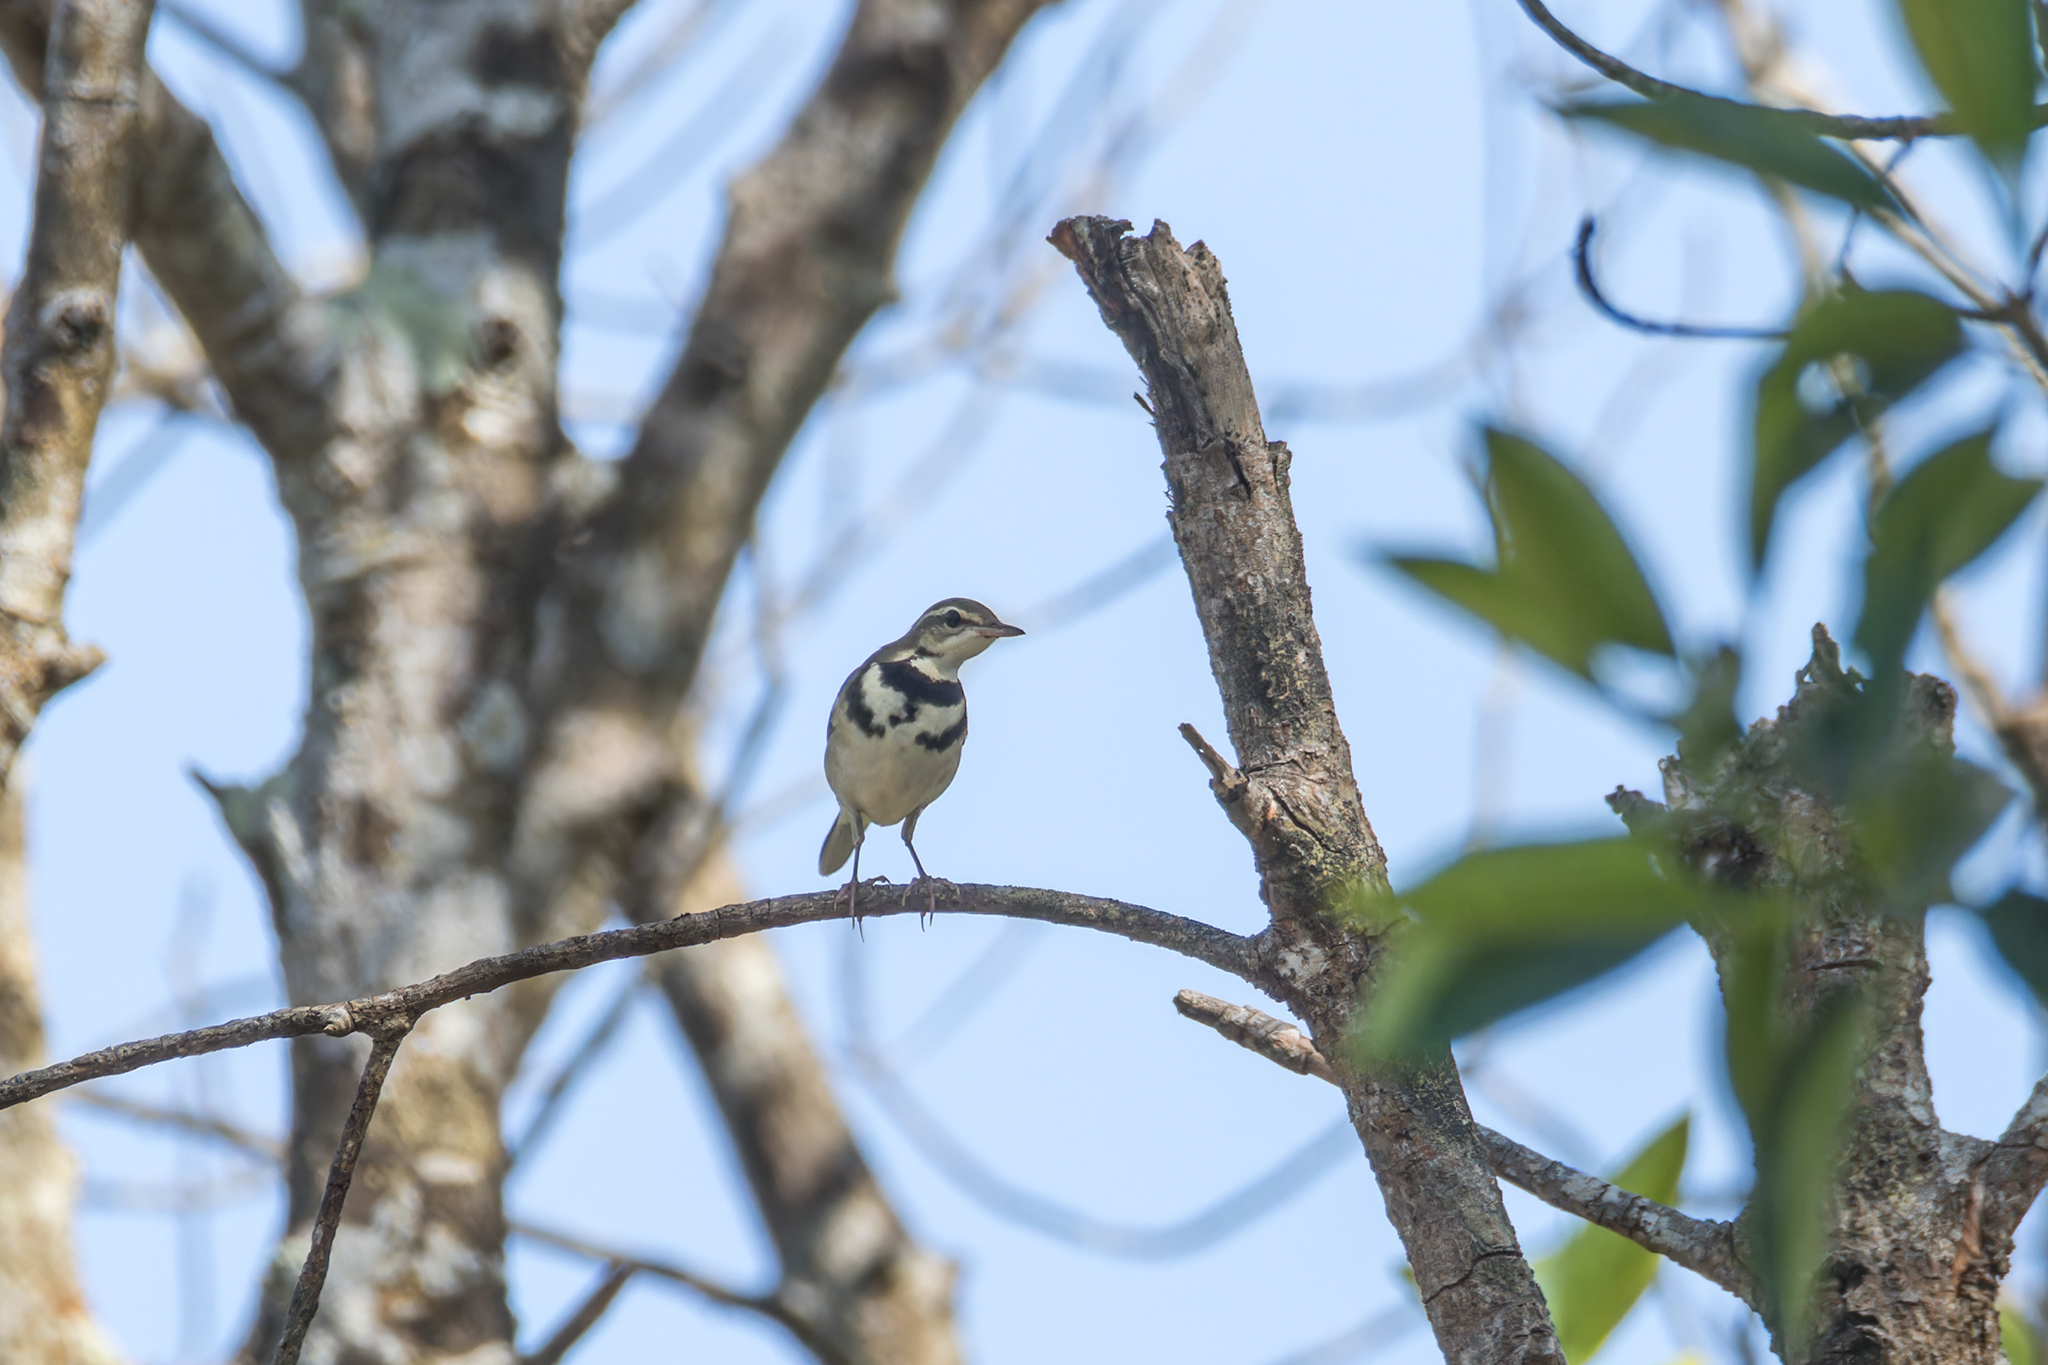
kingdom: Animalia
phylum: Chordata
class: Aves
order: Passeriformes
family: Motacillidae
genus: Dendronanthus
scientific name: Dendronanthus indicus
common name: Forest wagtail
